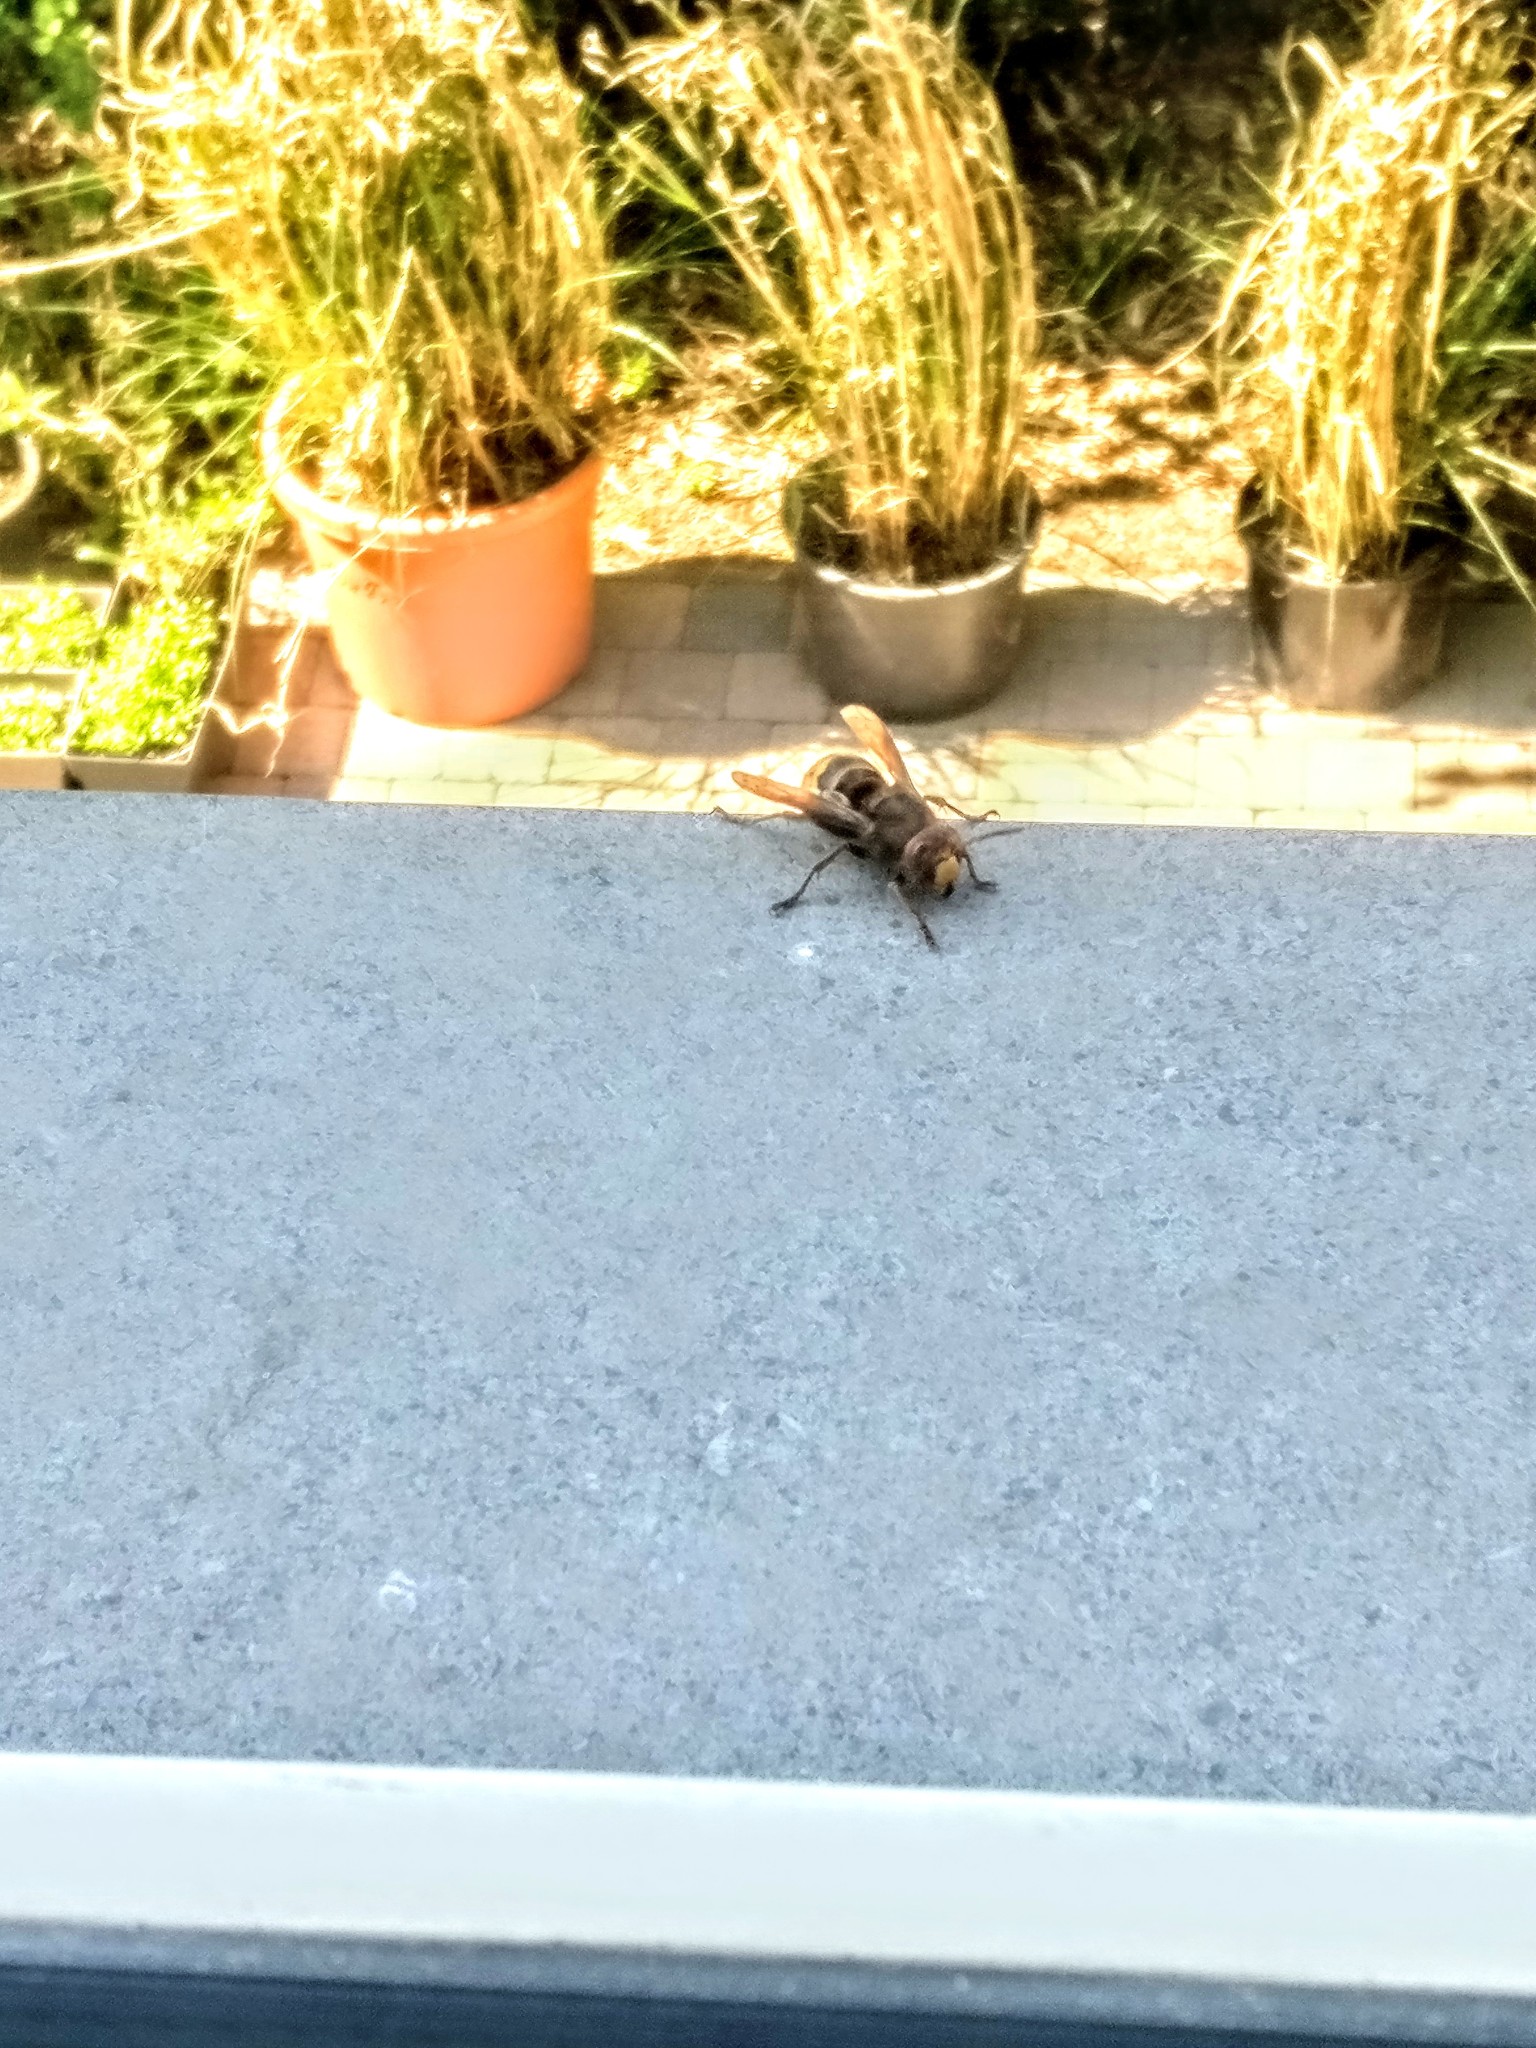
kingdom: Animalia
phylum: Arthropoda
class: Insecta
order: Hymenoptera
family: Vespidae
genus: Vespa
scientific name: Vespa crabro
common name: Hornet
